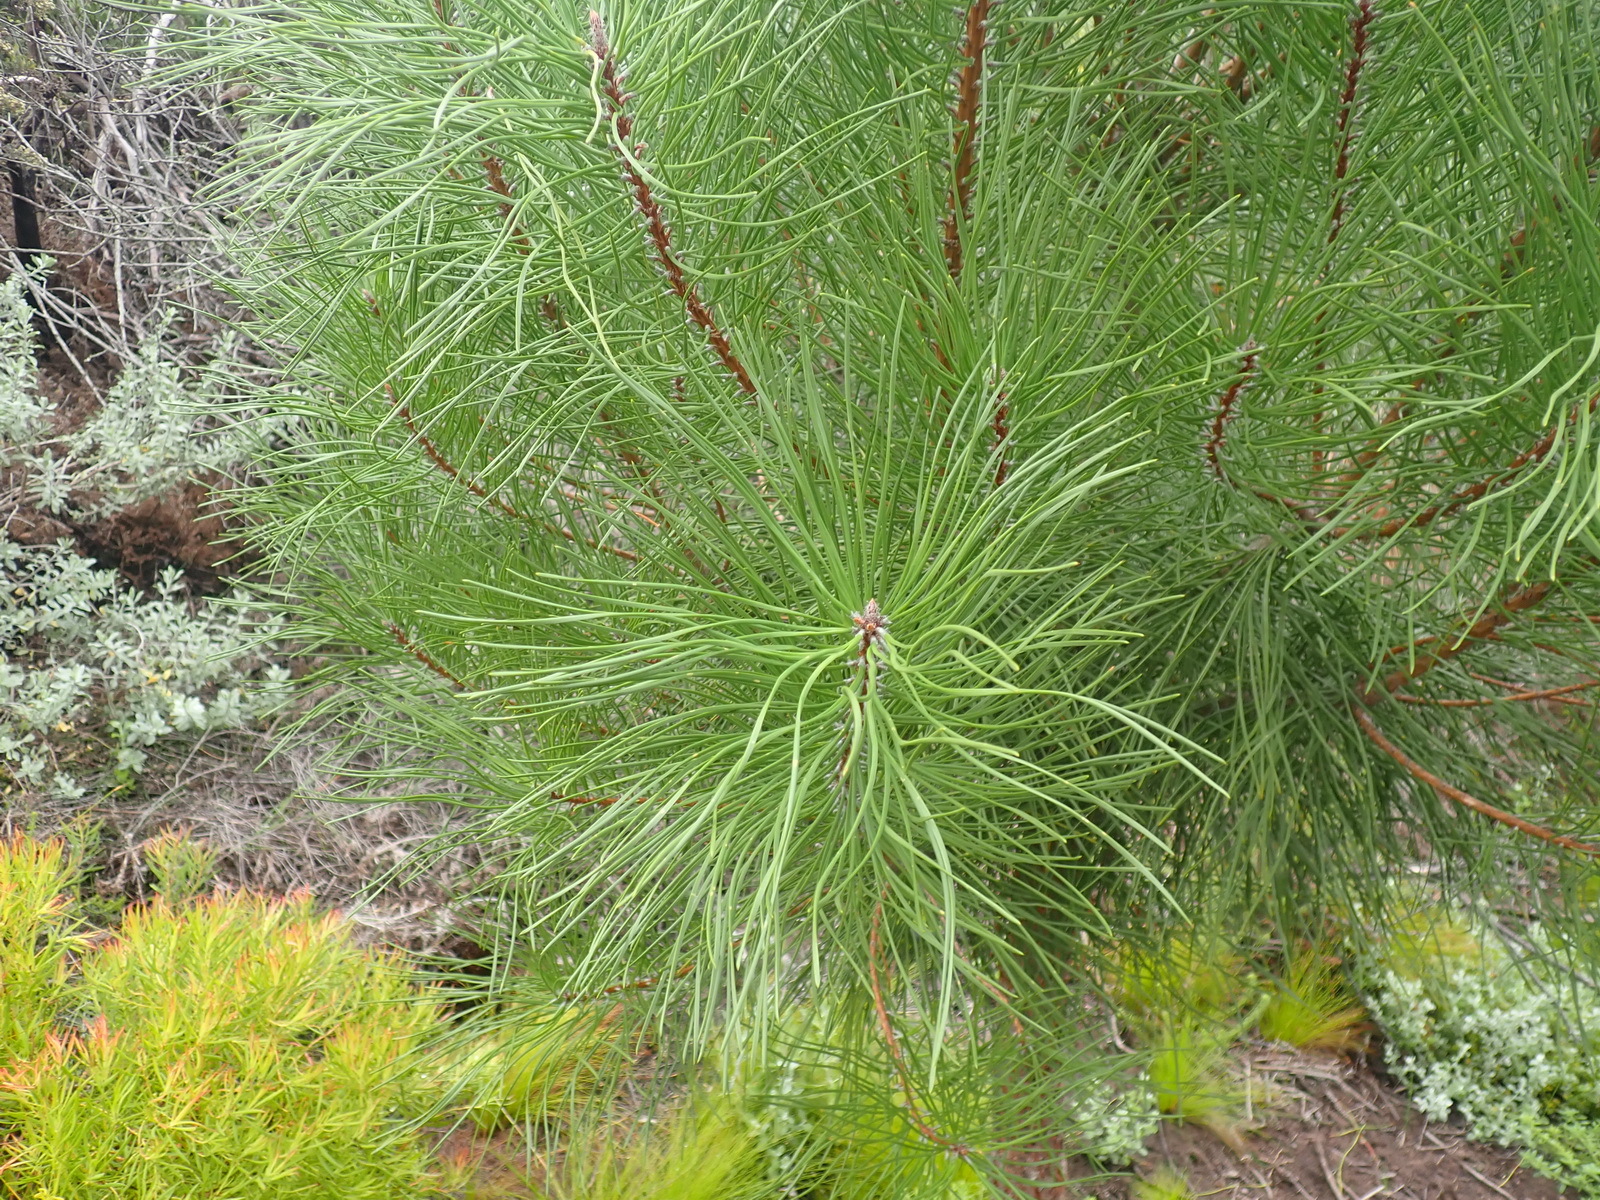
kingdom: Plantae
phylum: Tracheophyta
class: Pinopsida
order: Pinales
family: Pinaceae
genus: Pinus
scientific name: Pinus pinaster
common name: Maritime pine
